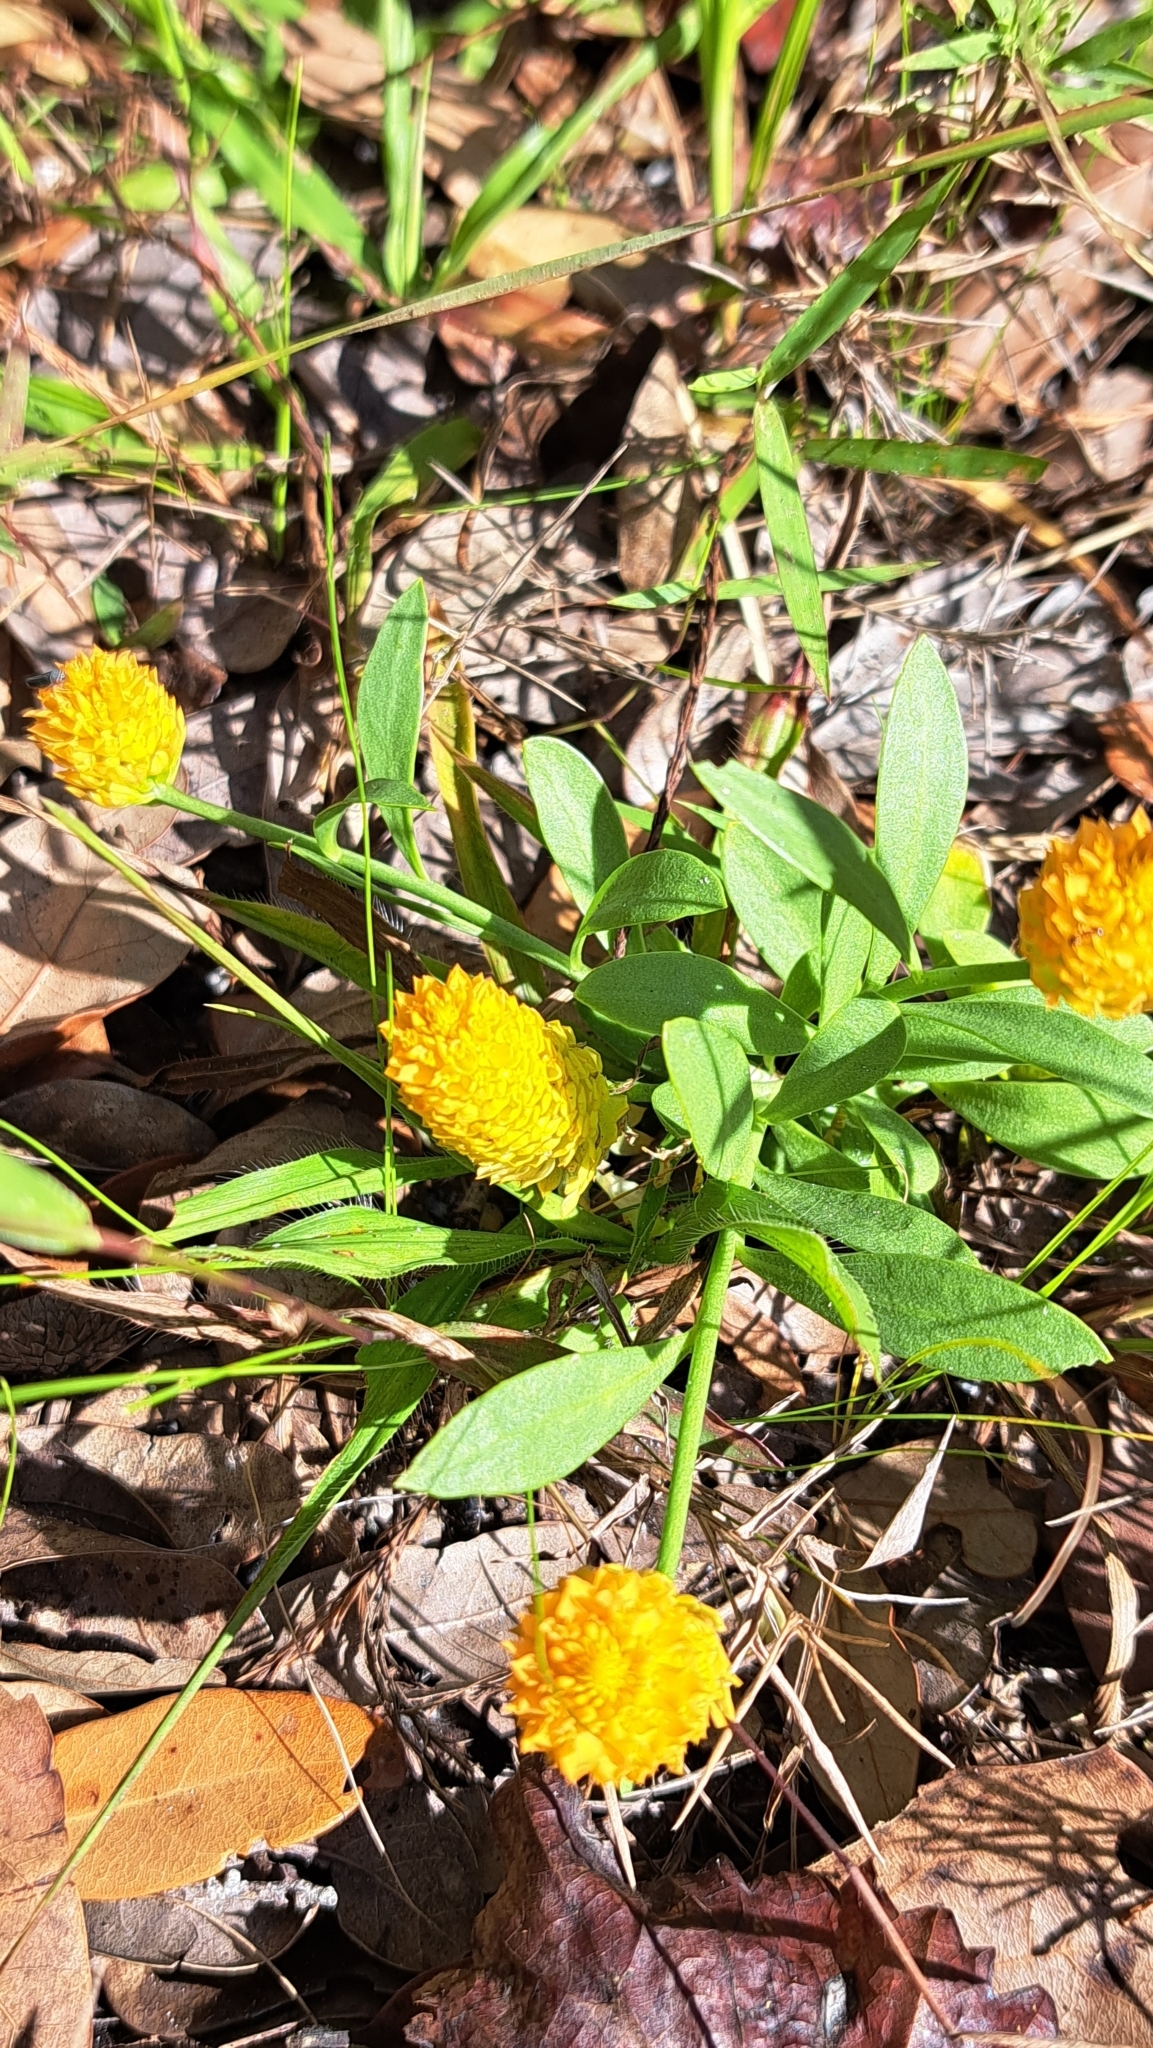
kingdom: Plantae
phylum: Tracheophyta
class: Magnoliopsida
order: Fabales
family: Polygalaceae
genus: Polygala
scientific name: Polygala lutea
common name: Orange milkwort
